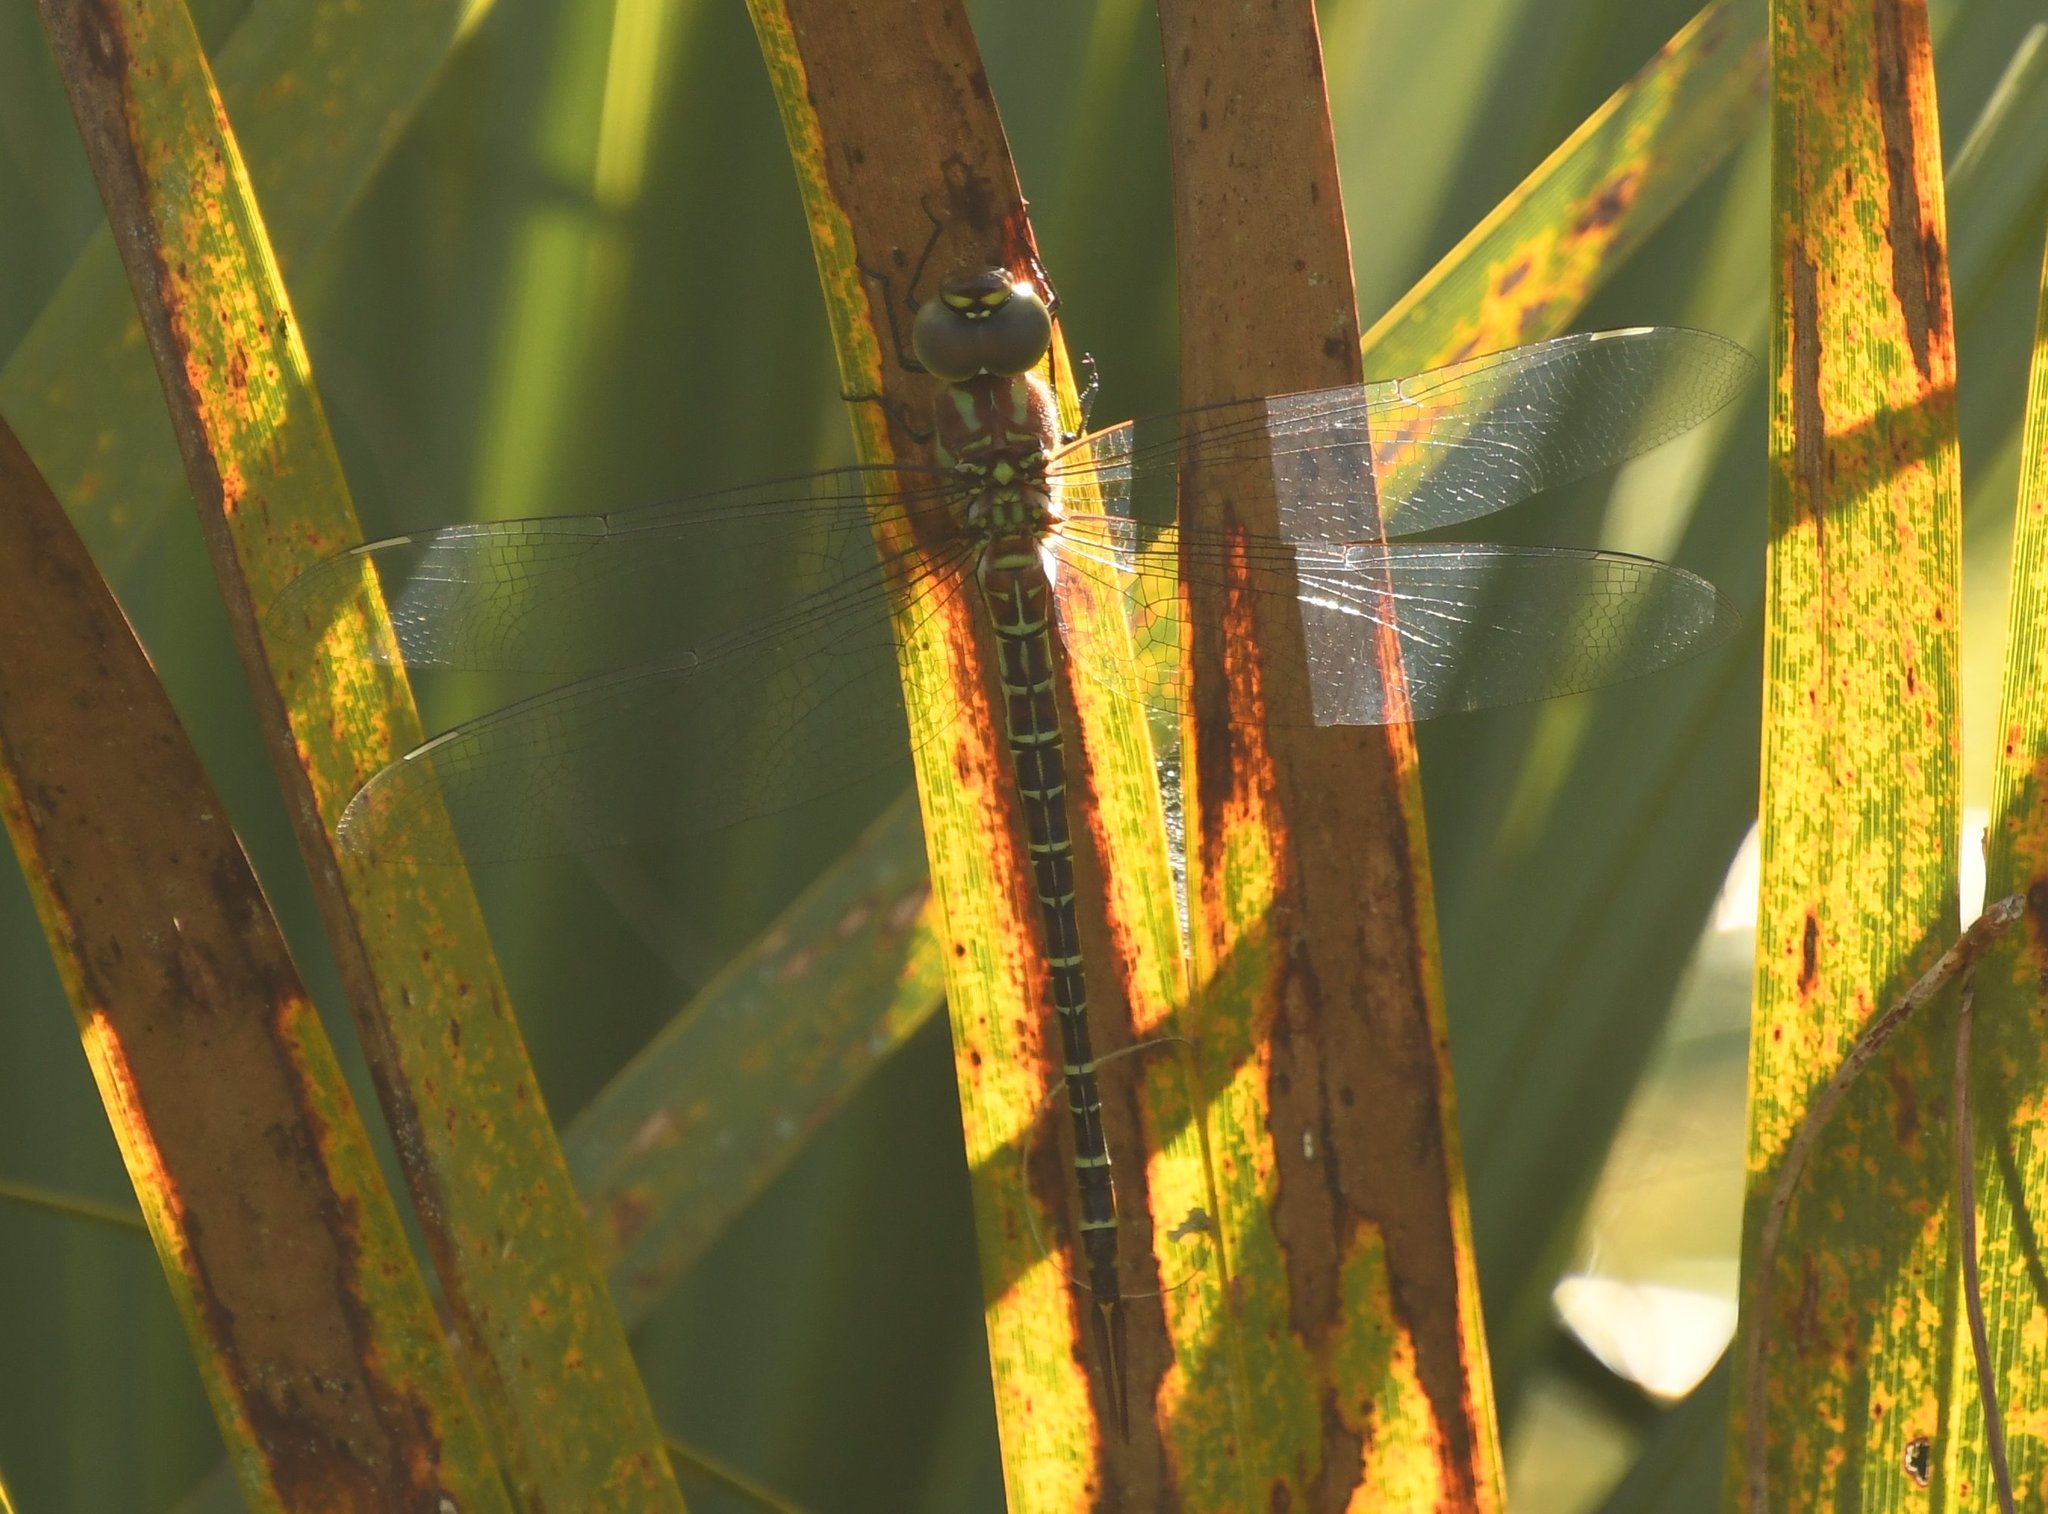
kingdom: Animalia
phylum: Arthropoda
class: Insecta
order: Odonata
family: Aeshnidae
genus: Coryphaeschna
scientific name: Coryphaeschna ingens
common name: Regal darner
